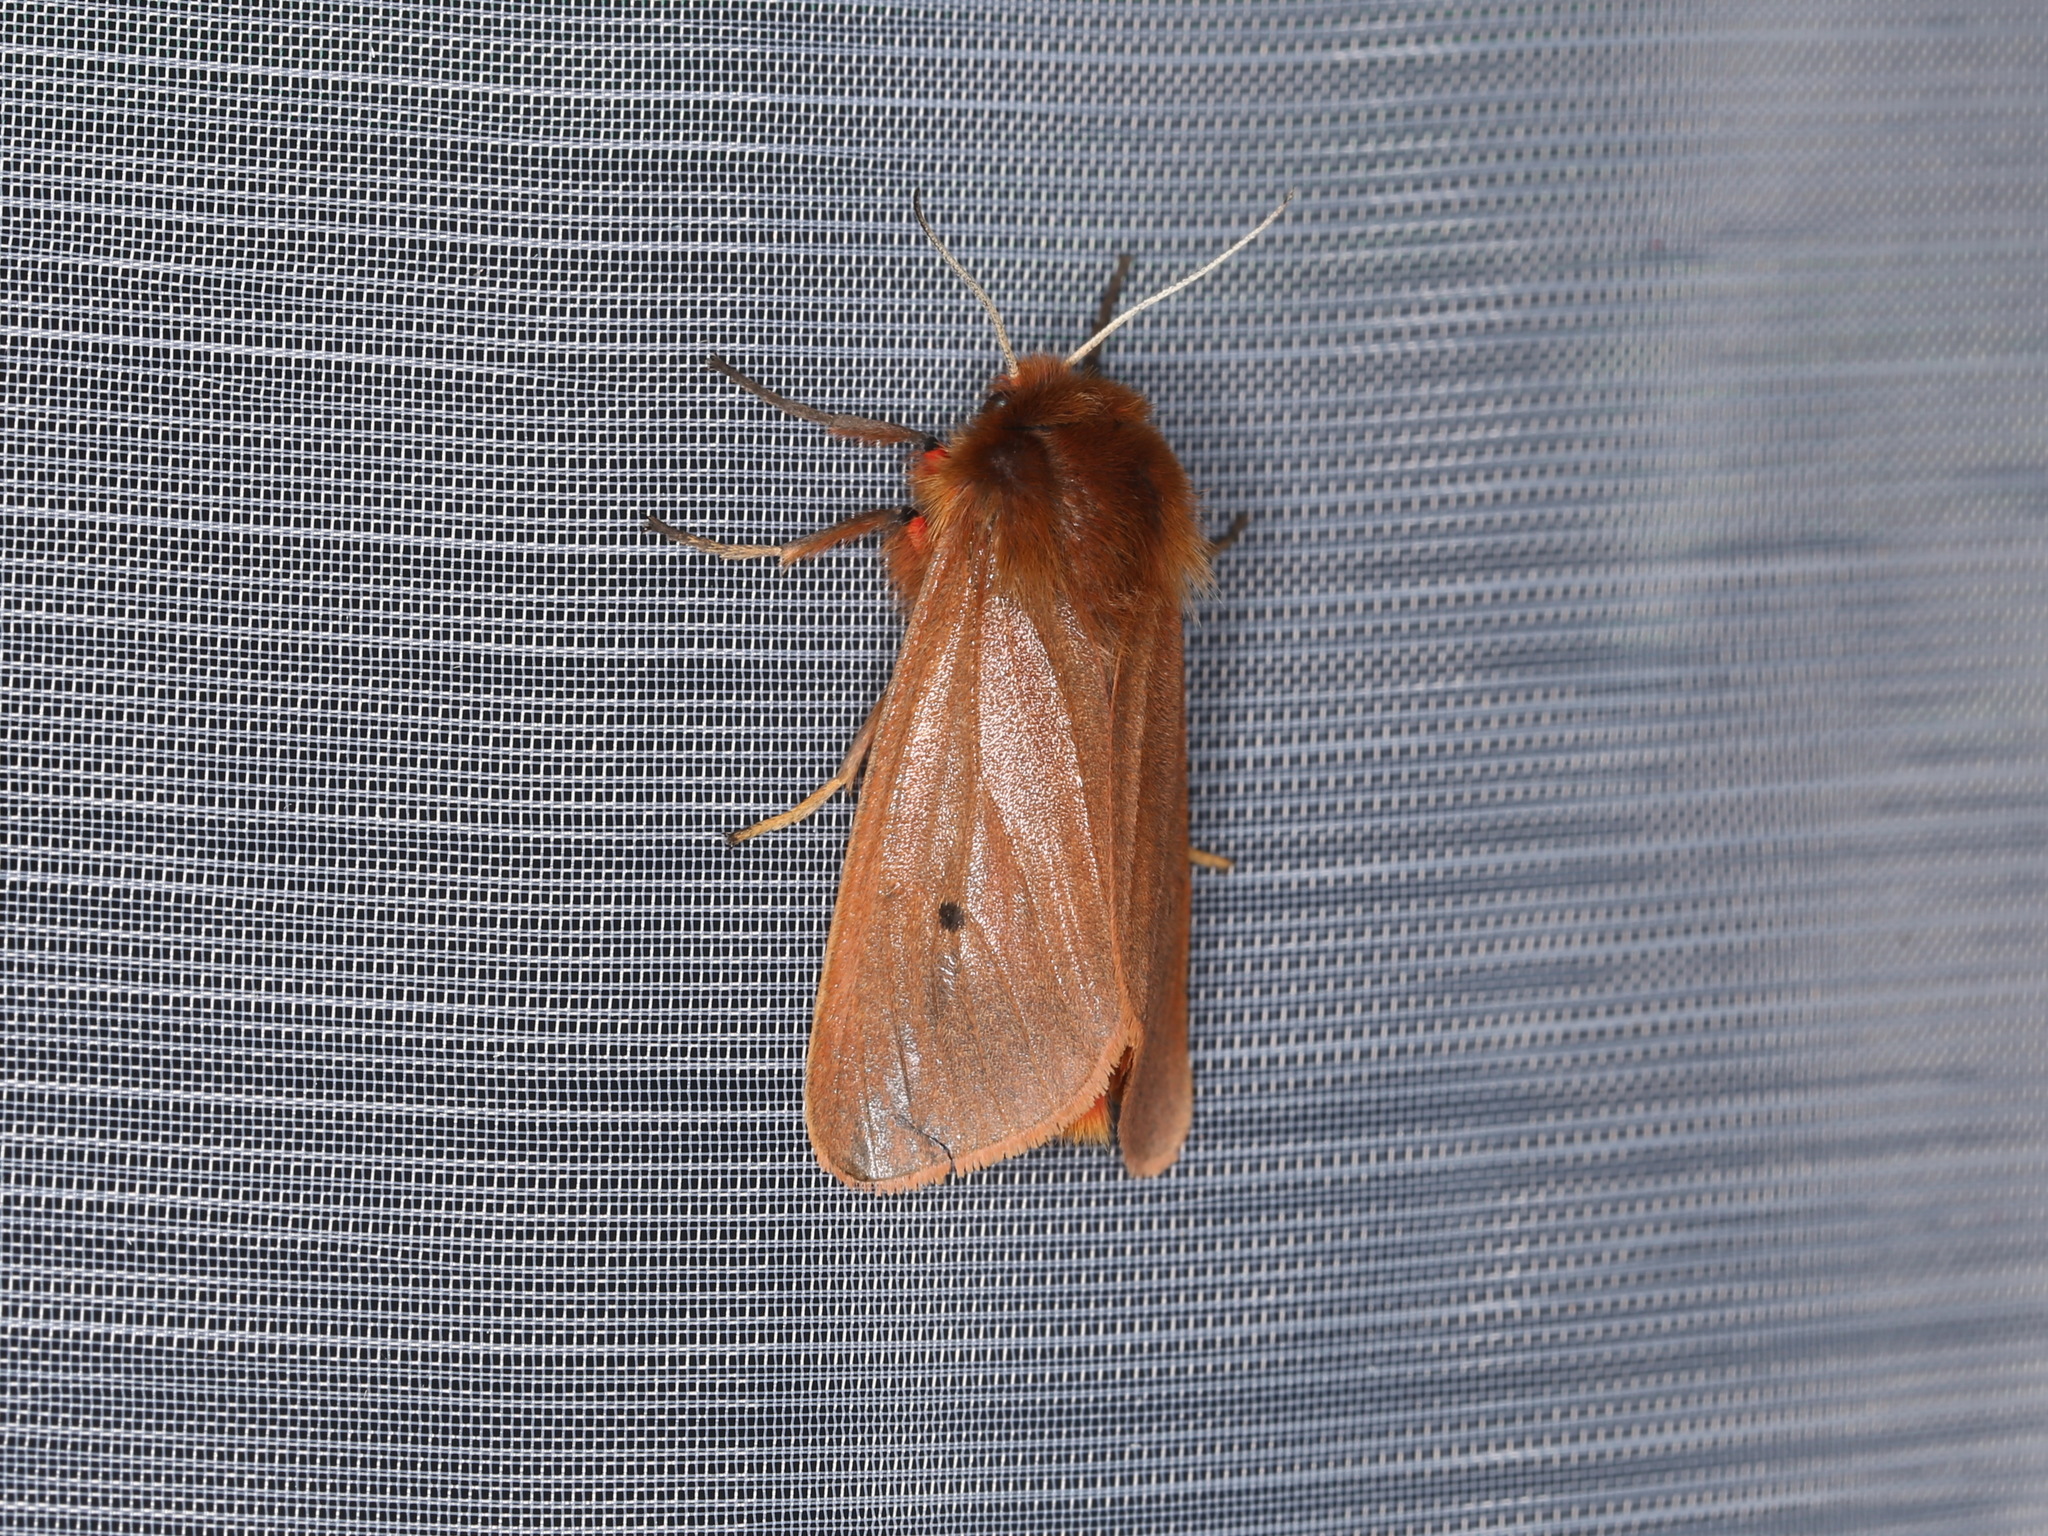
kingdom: Animalia
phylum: Arthropoda
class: Insecta
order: Lepidoptera
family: Erebidae
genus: Phragmatobia
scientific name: Phragmatobia fuliginosa
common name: Ruby tiger
